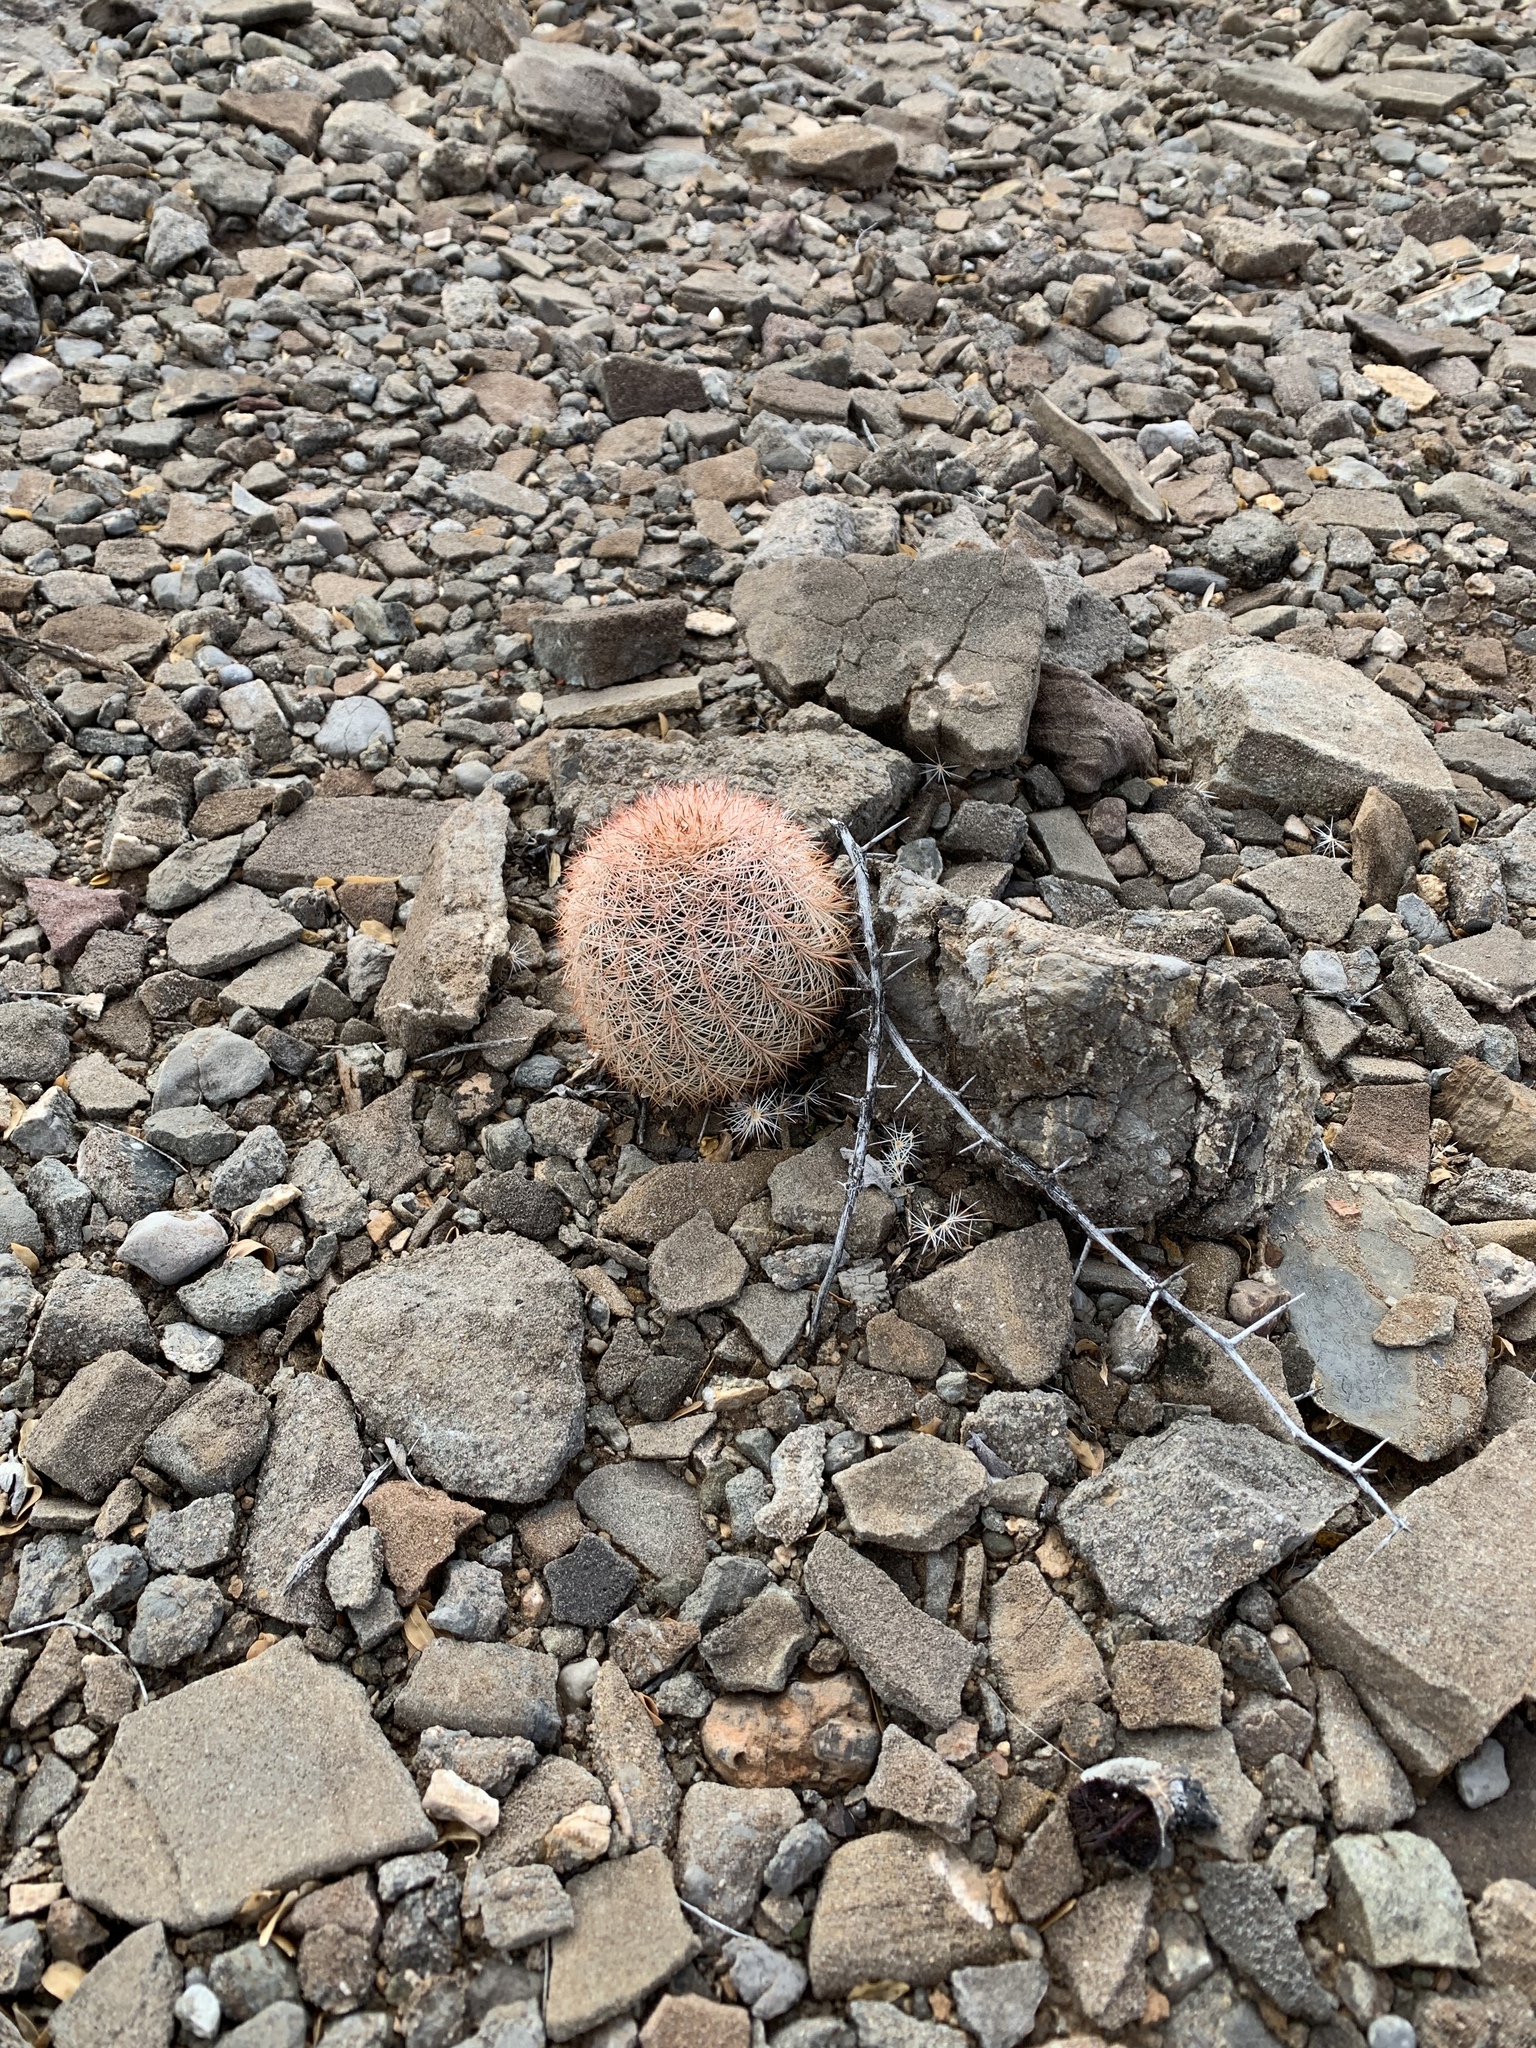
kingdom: Plantae
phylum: Tracheophyta
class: Magnoliopsida
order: Caryophyllales
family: Cactaceae
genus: Echinocereus
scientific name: Echinocereus dasyacanthus
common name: Spiny hedgehog cactus
